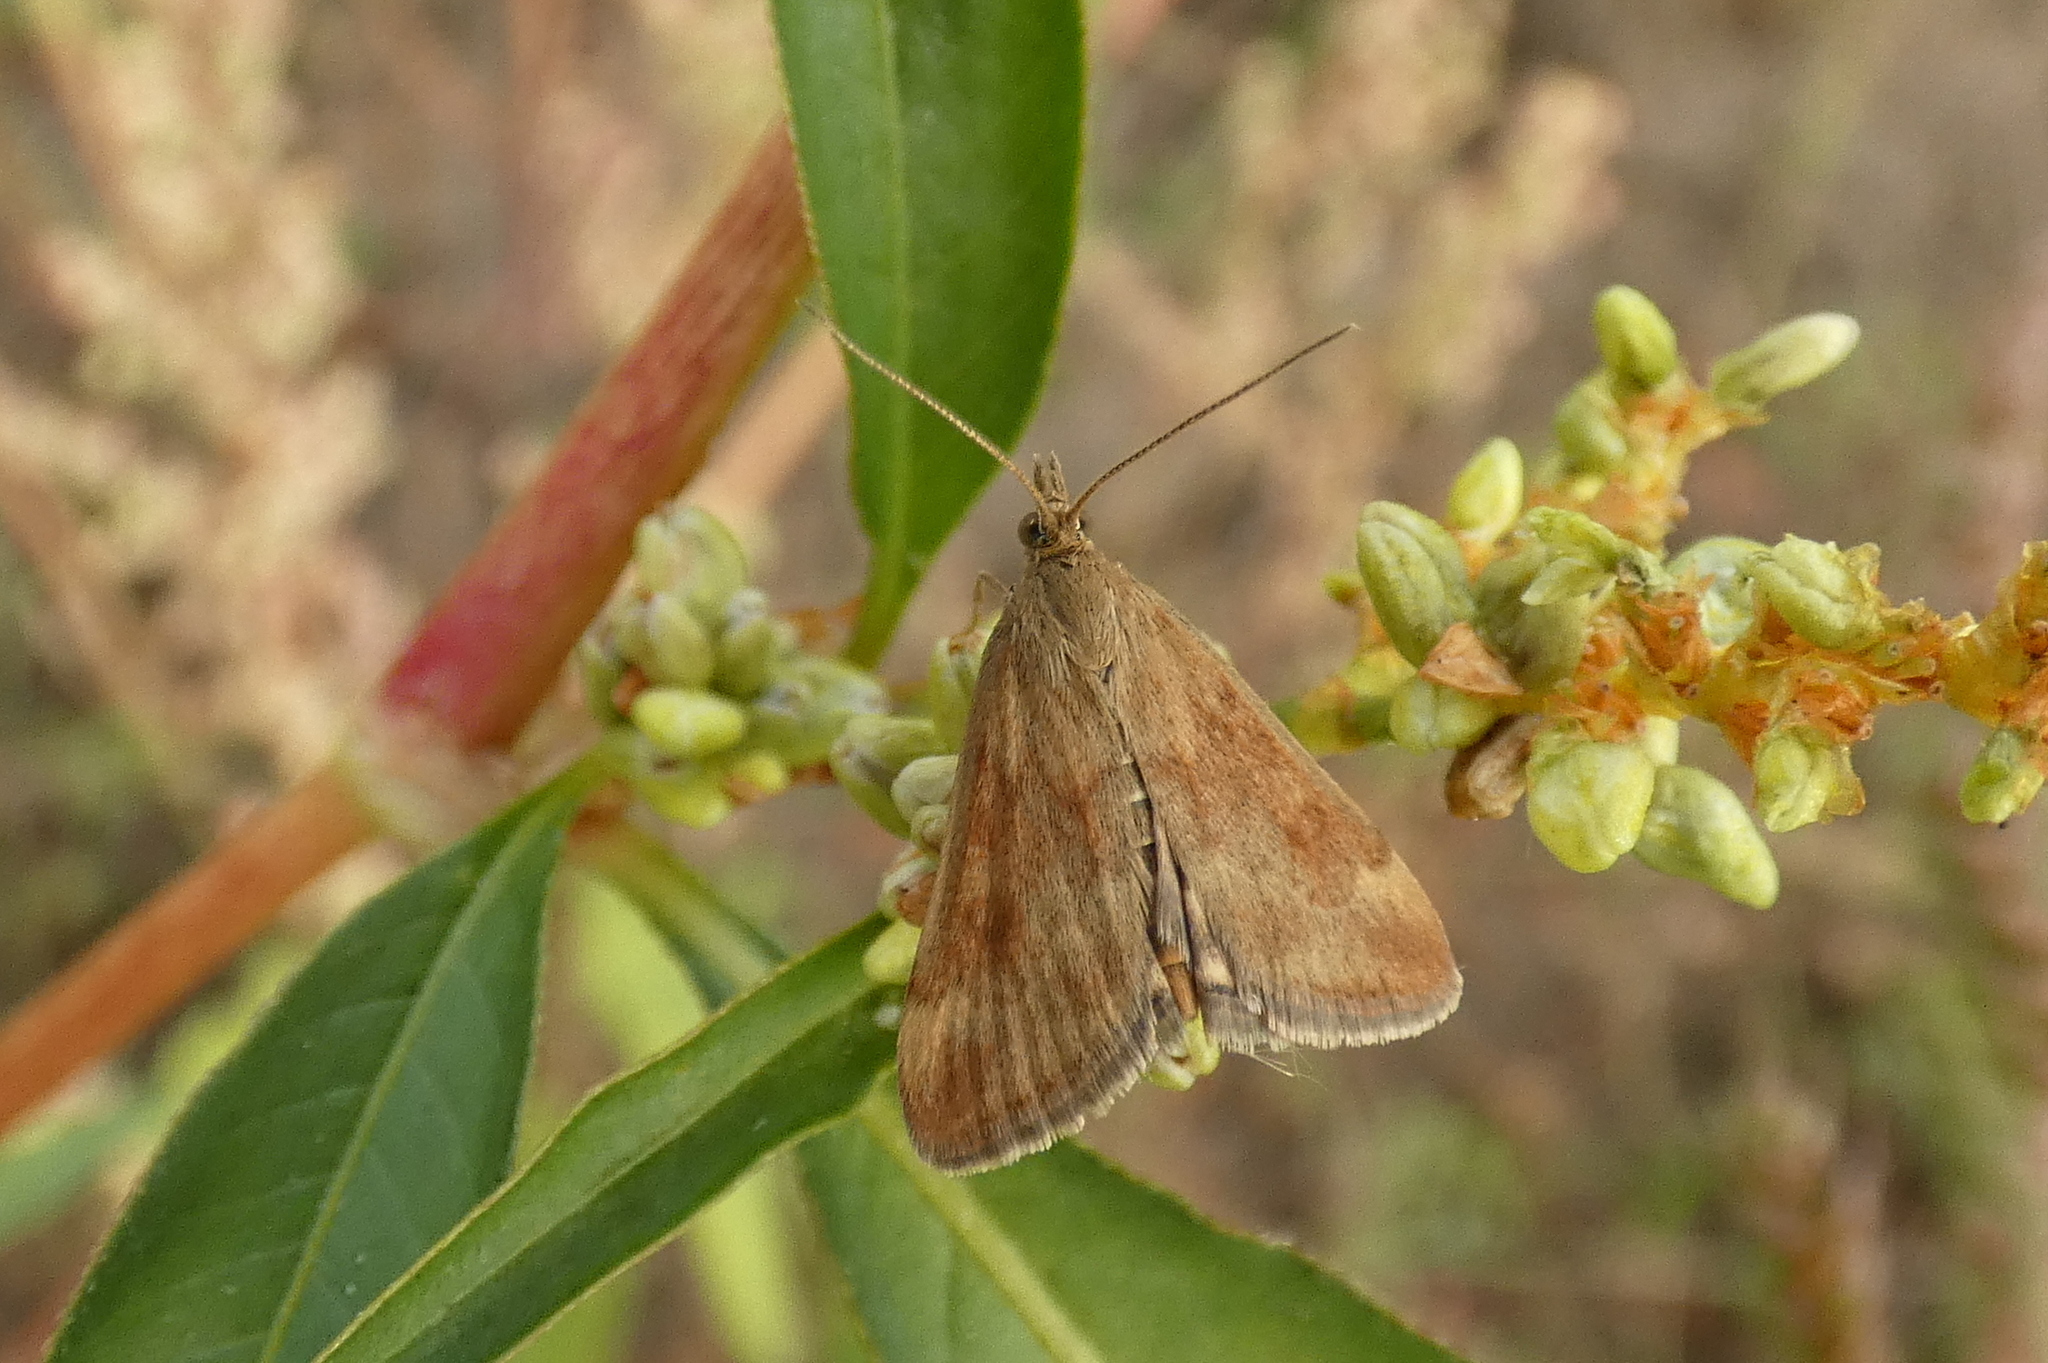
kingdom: Animalia
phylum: Arthropoda
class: Insecta
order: Lepidoptera
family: Crambidae
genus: Pyrausta
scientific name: Pyrausta despicata
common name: Straw-barred pearl
